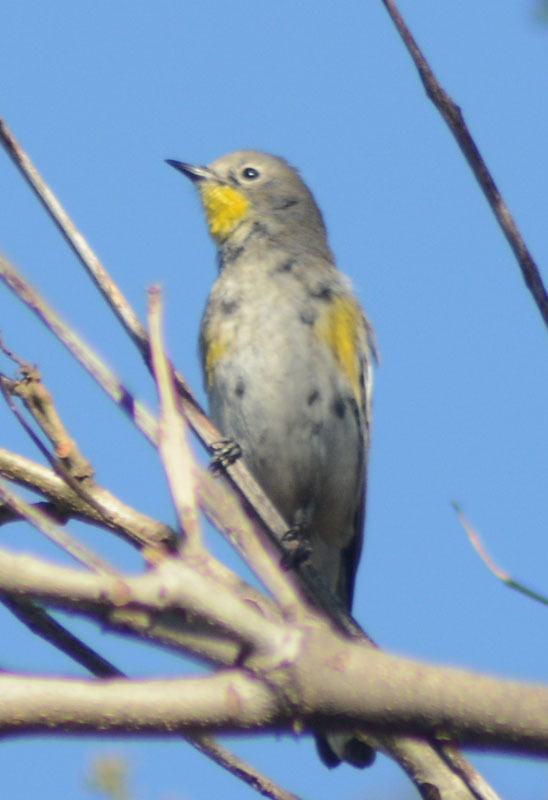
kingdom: Animalia
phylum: Chordata
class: Aves
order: Passeriformes
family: Parulidae
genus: Setophaga
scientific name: Setophaga auduboni
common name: Audubon's warbler
